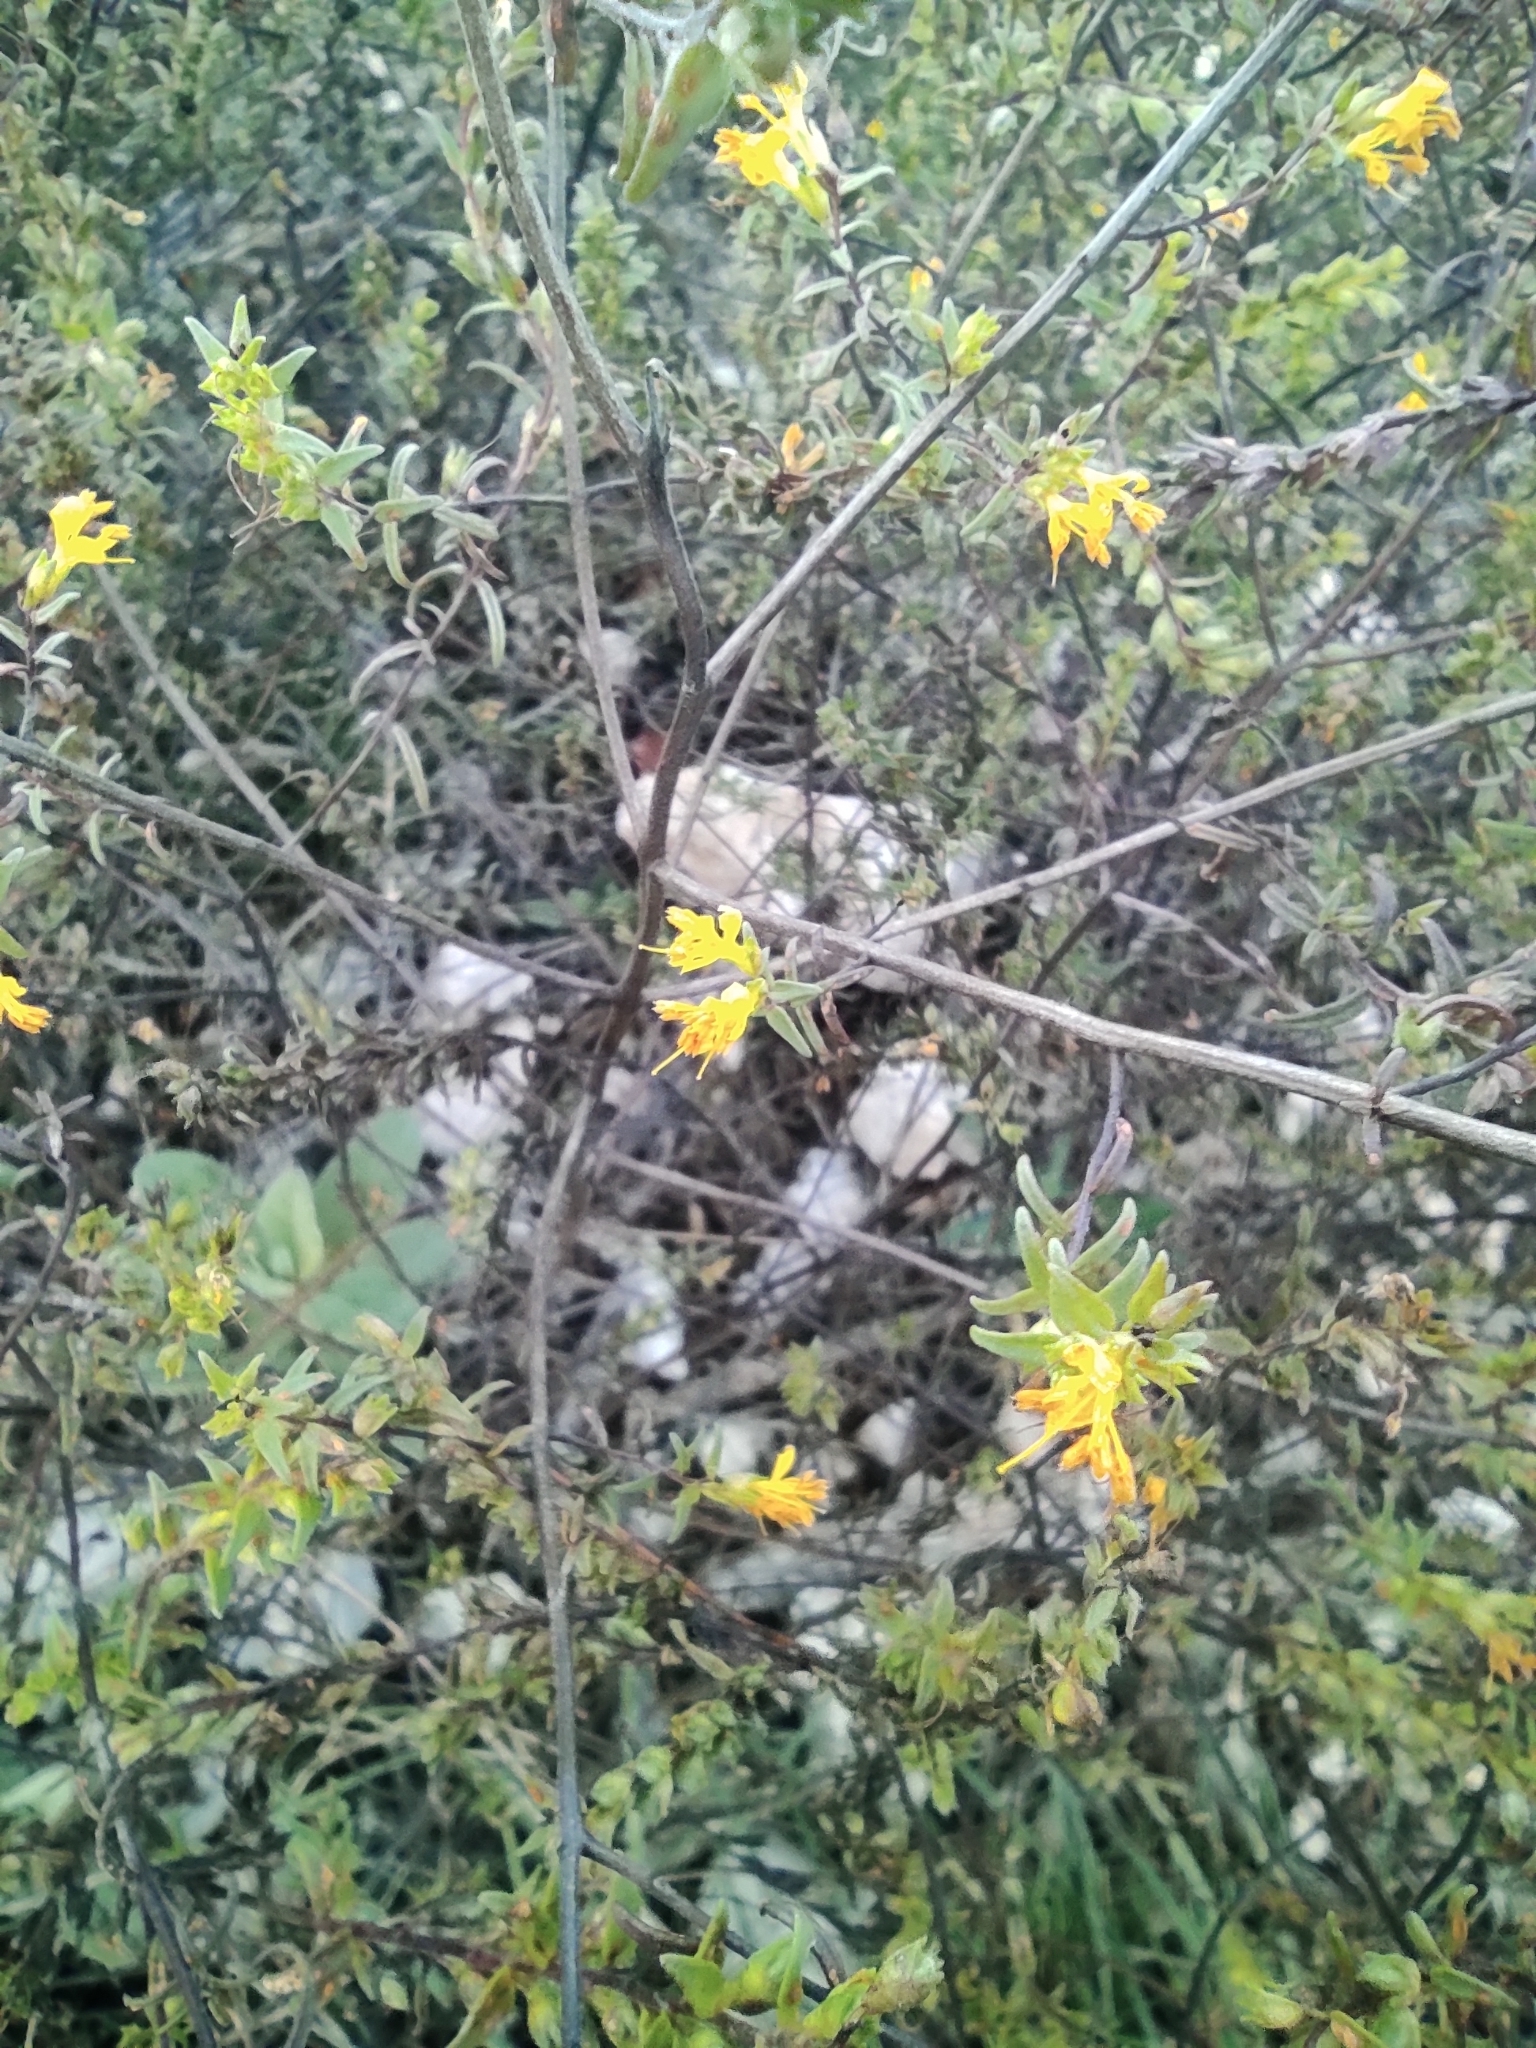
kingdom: Plantae
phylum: Tracheophyta
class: Magnoliopsida
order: Lamiales
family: Orobanchaceae
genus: Odontites
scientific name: Odontites luteus
